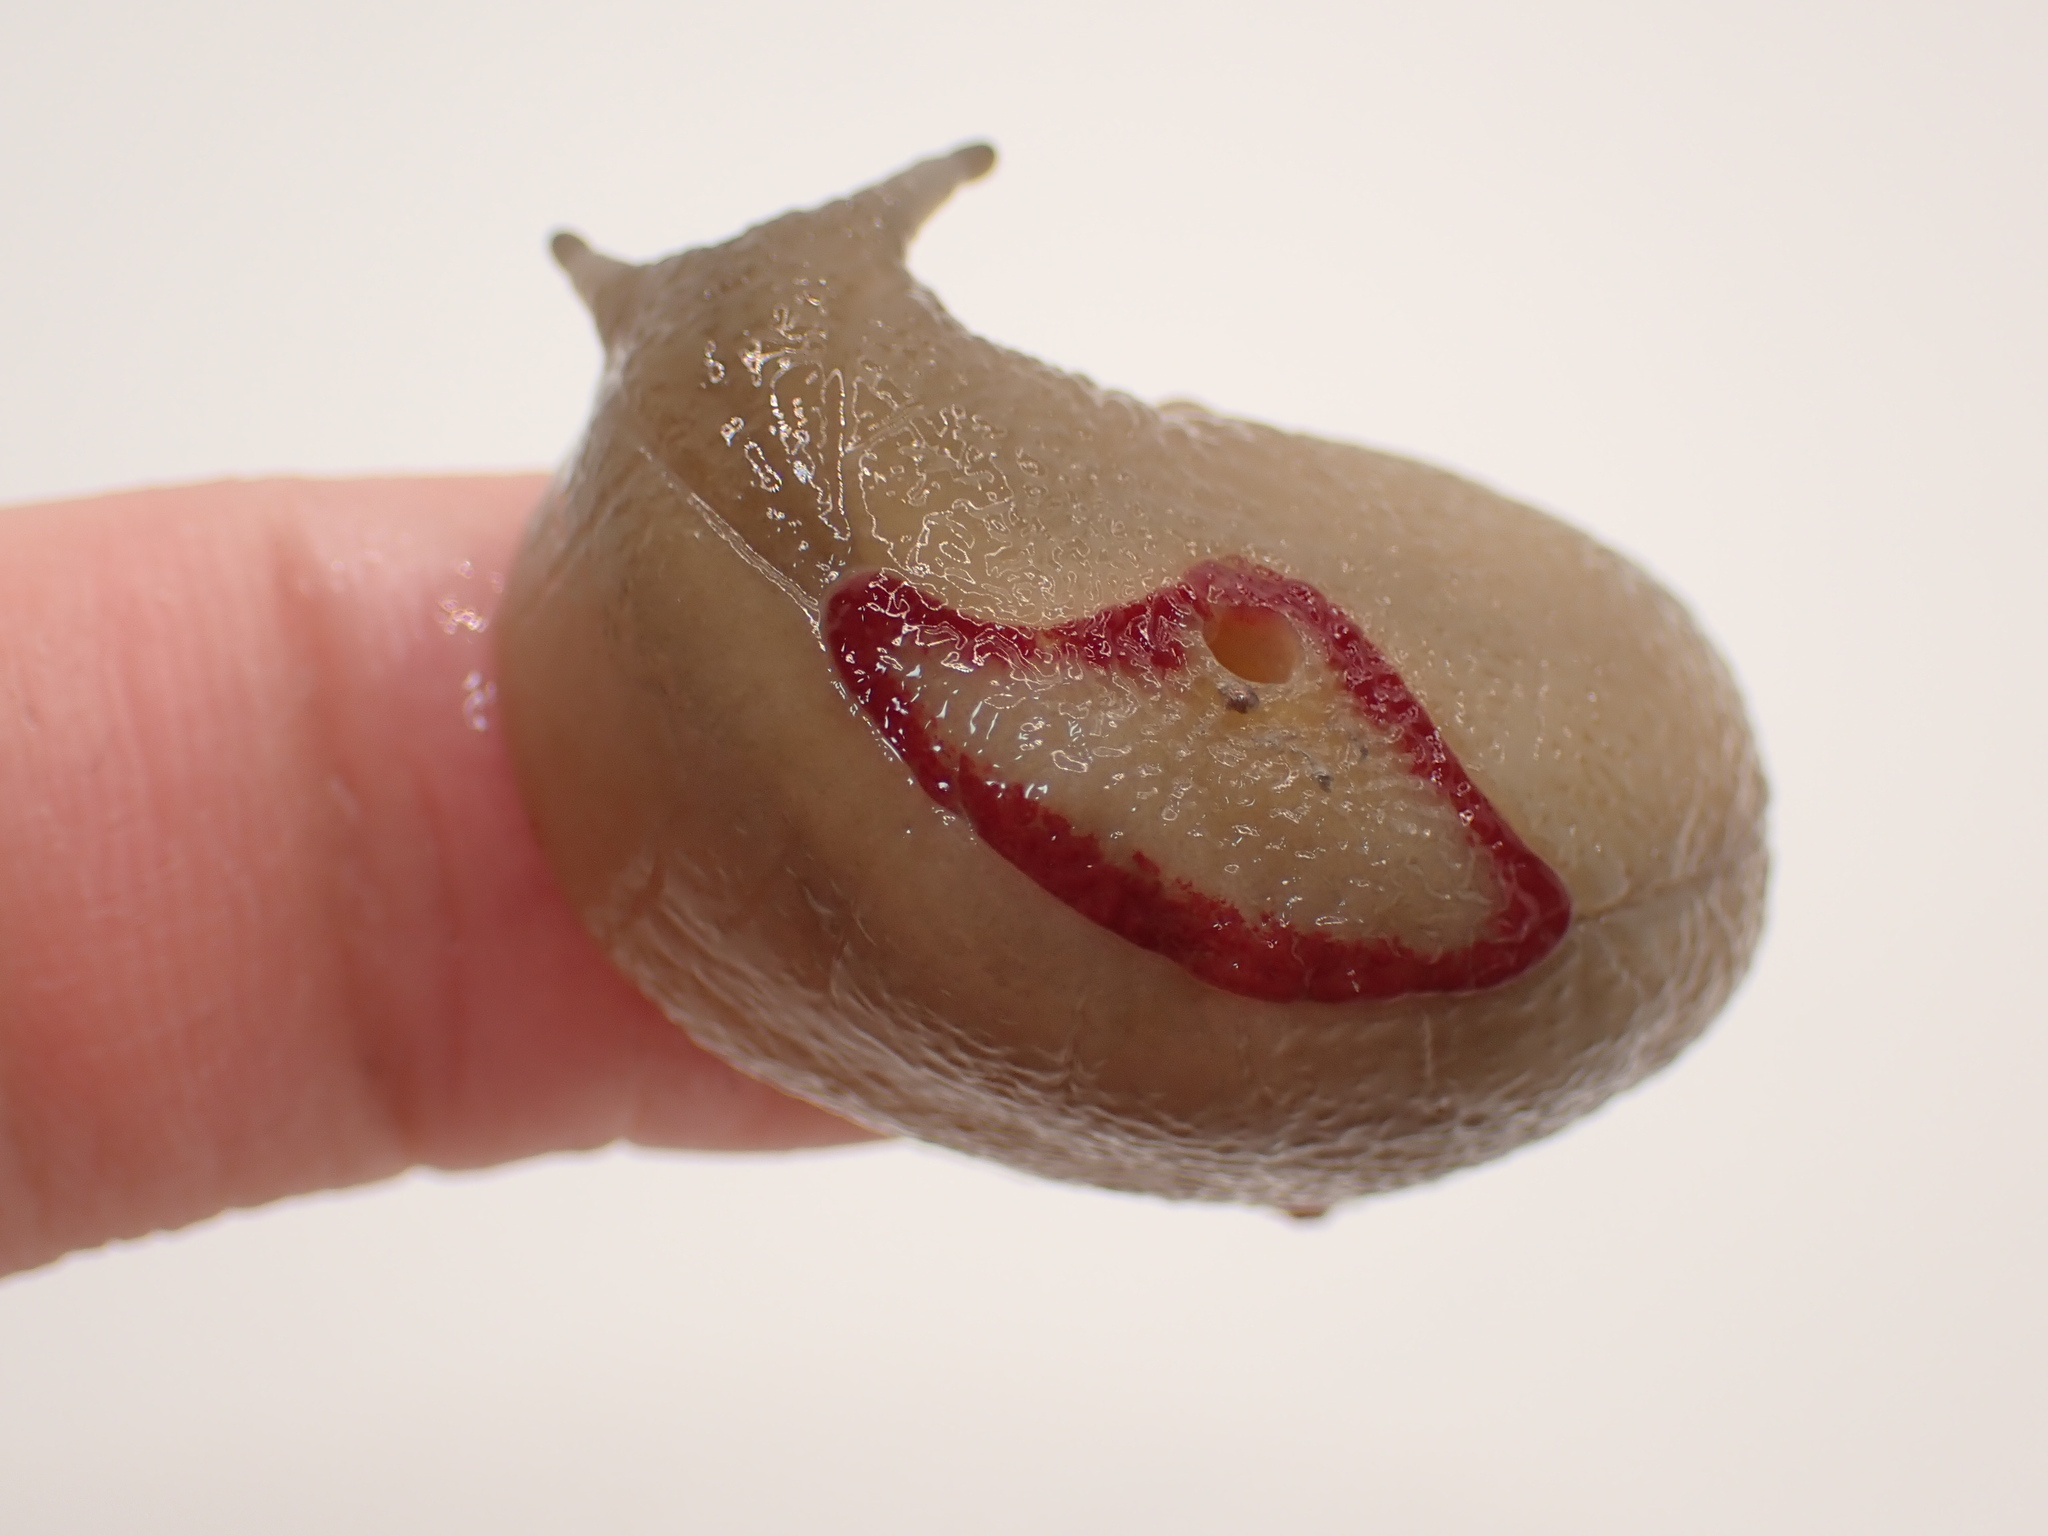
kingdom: Animalia
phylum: Mollusca
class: Gastropoda
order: Stylommatophora
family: Athoracophoridae
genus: Triboniophorus
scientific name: Triboniophorus graeffei
